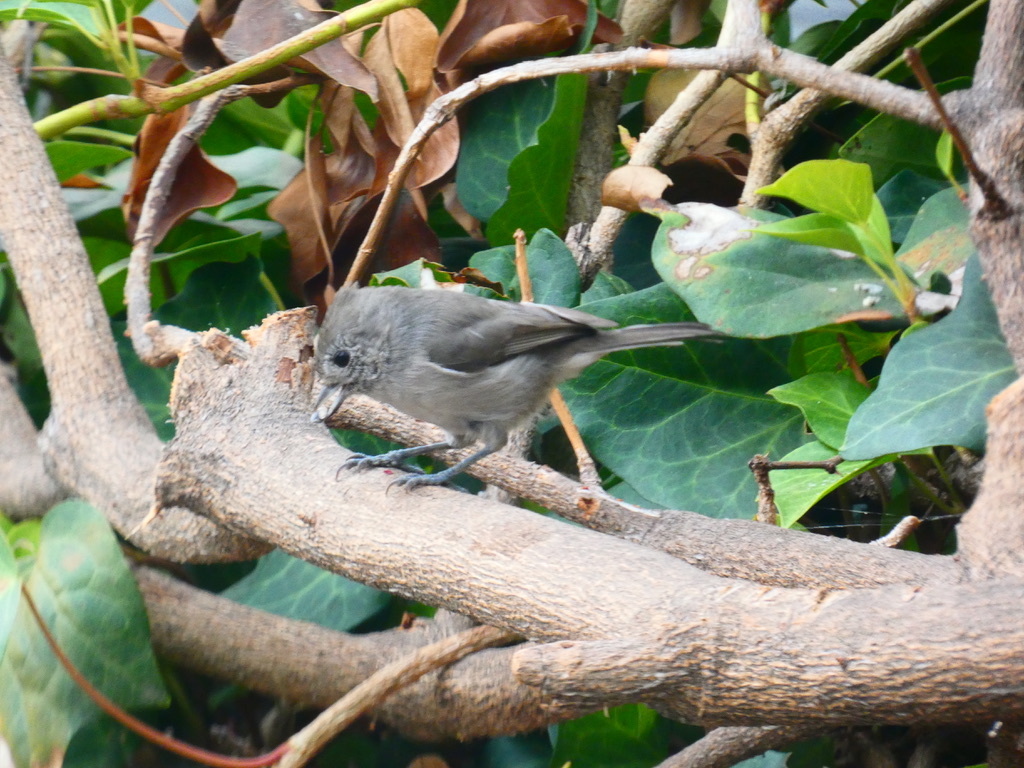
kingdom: Animalia
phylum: Chordata
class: Aves
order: Passeriformes
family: Paridae
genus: Baeolophus
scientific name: Baeolophus inornatus
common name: Oak titmouse
